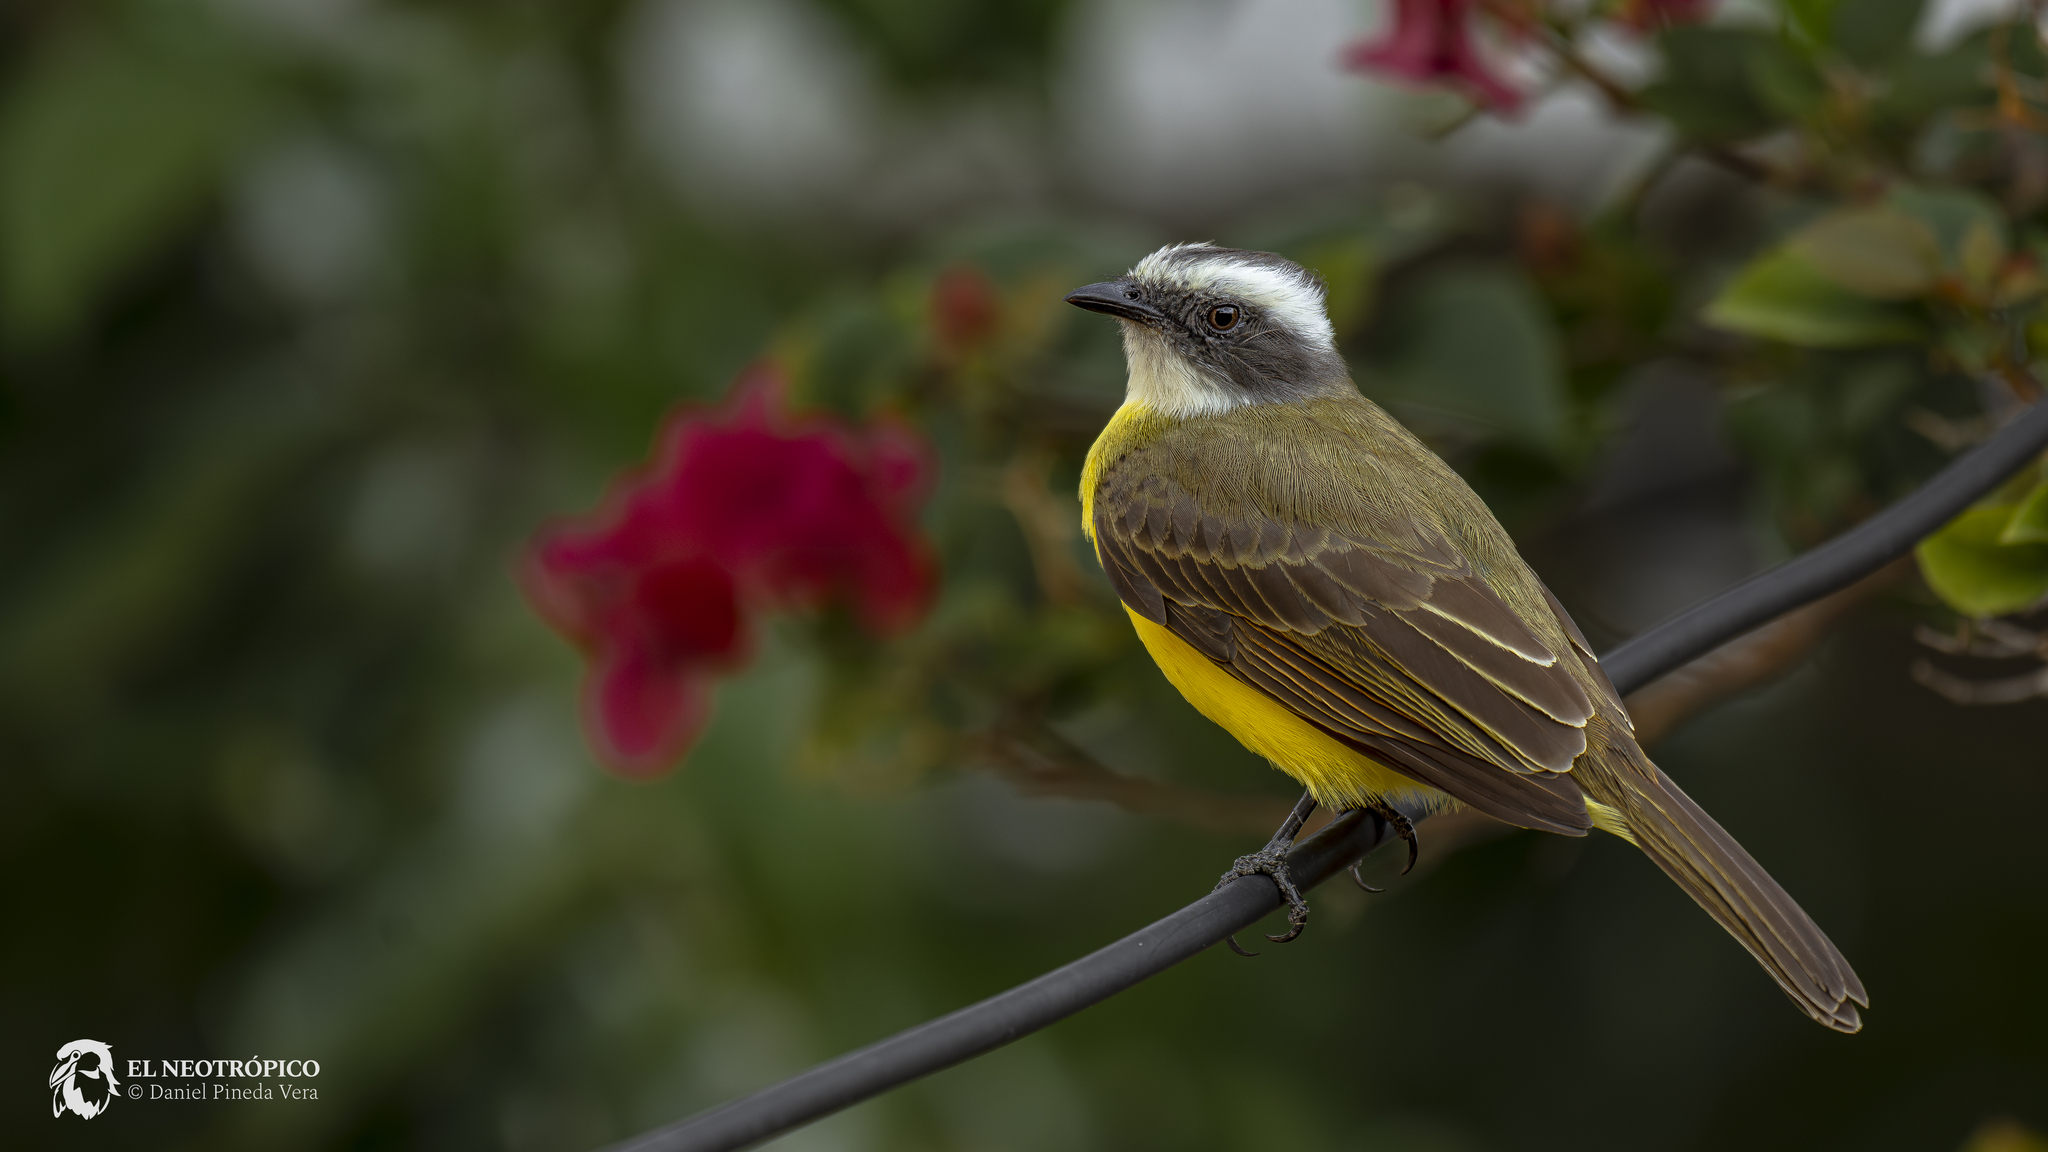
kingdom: Animalia
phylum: Chordata
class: Aves
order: Passeriformes
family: Tyrannidae
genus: Myiozetetes
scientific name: Myiozetetes similis
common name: Social flycatcher
